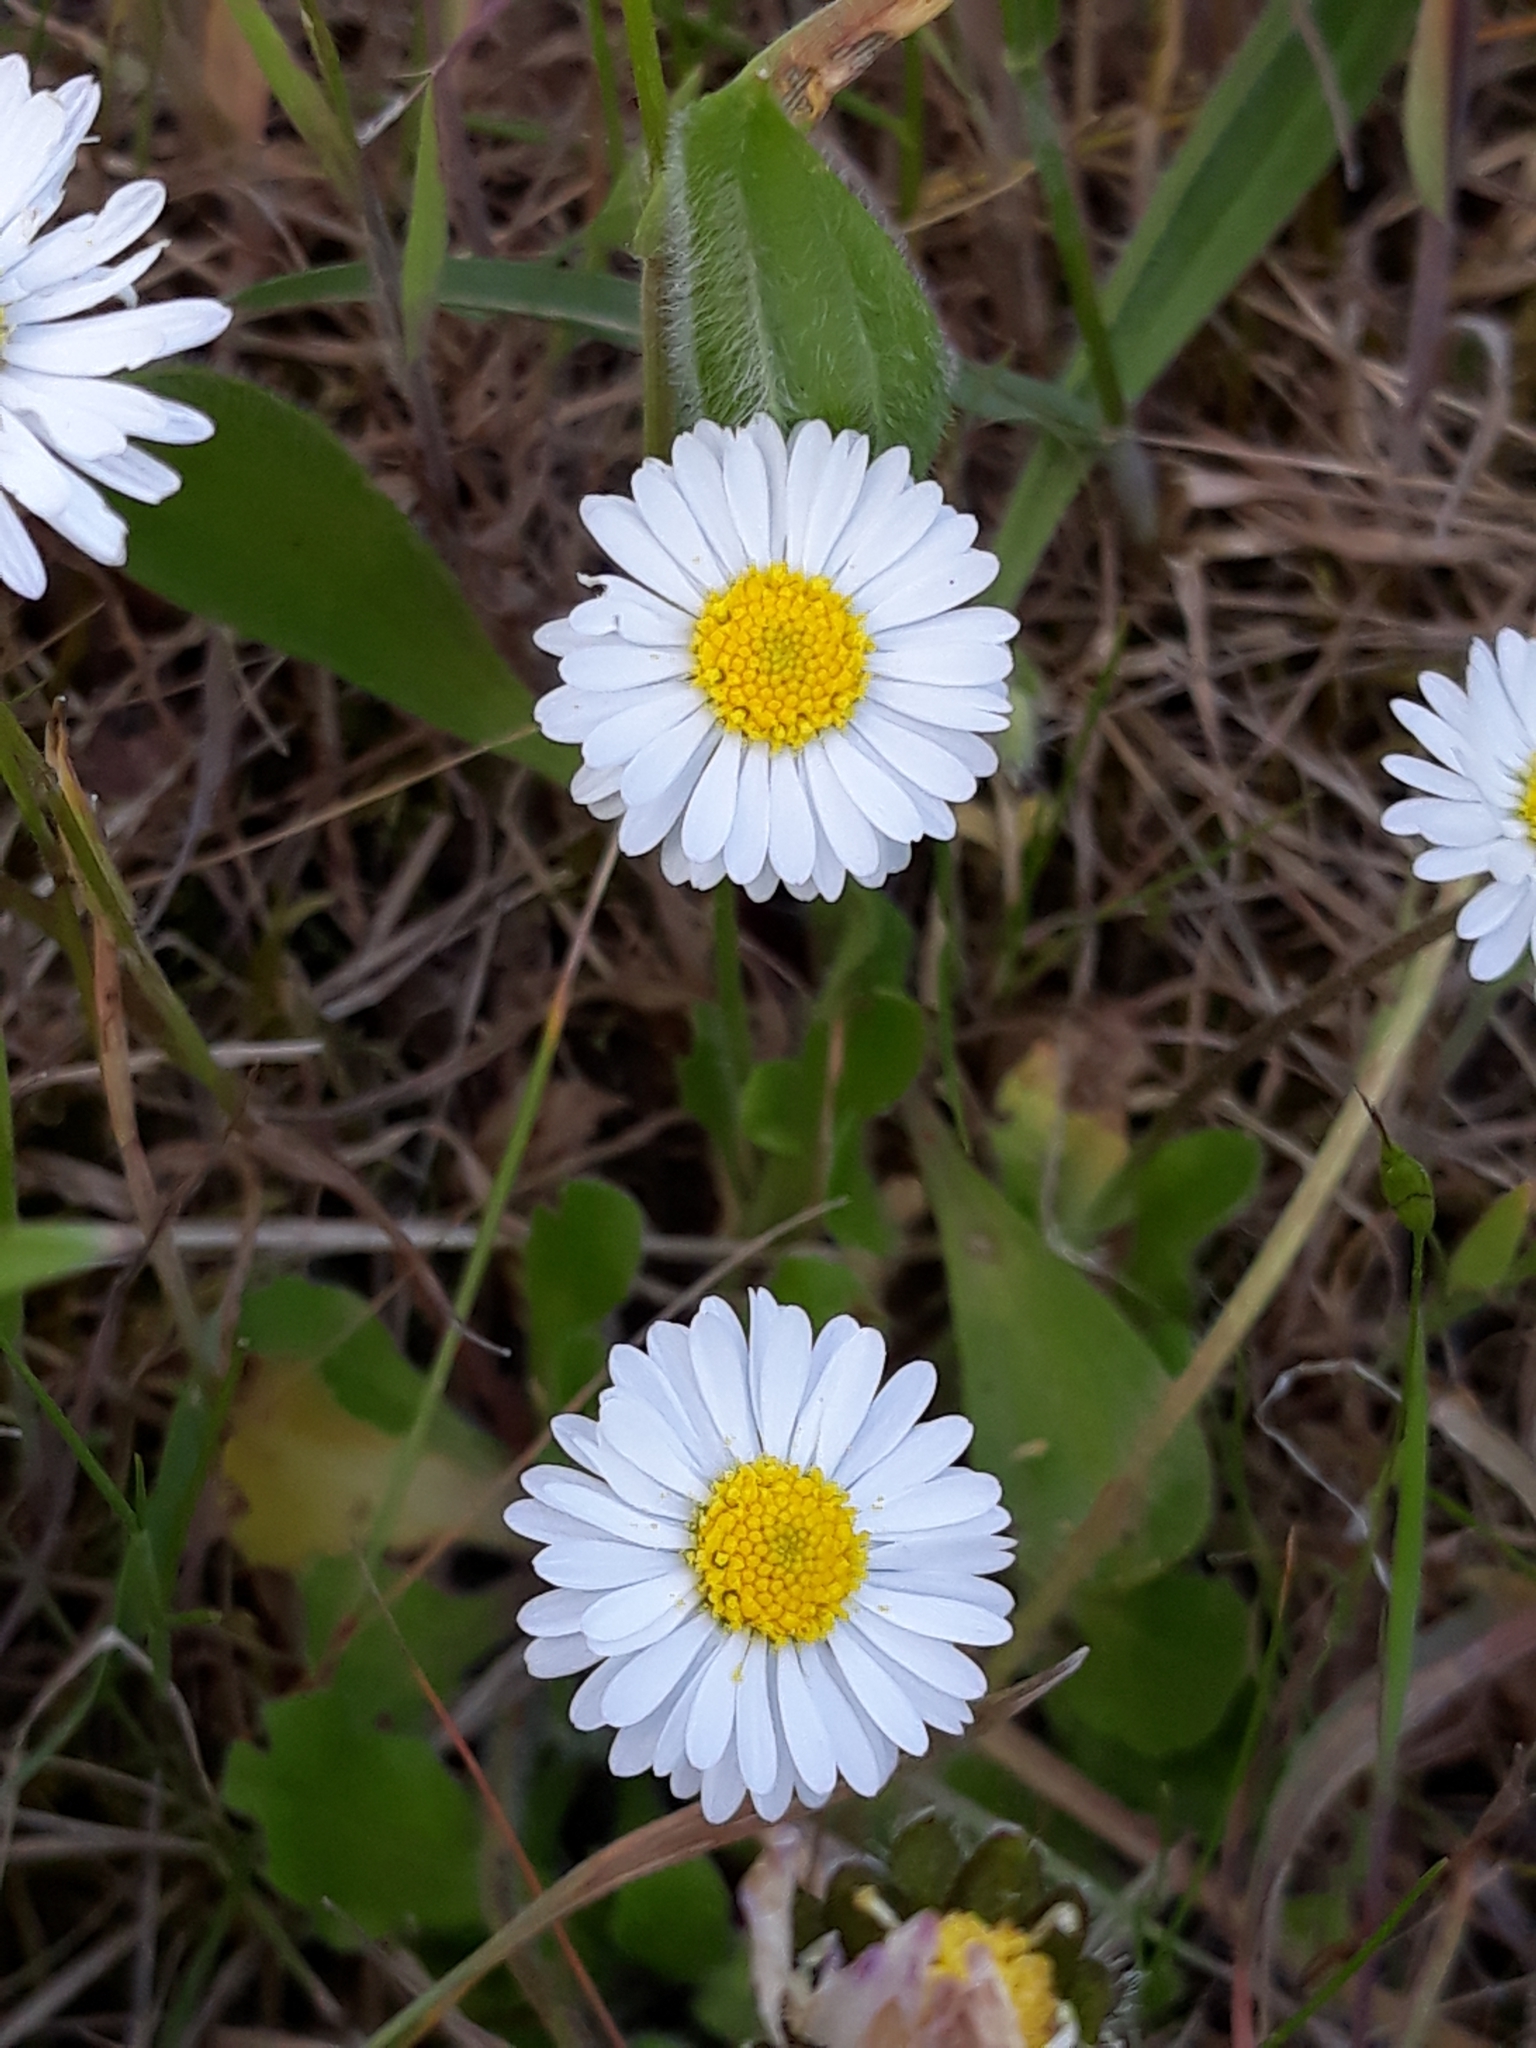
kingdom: Plantae
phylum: Tracheophyta
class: Magnoliopsida
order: Asterales
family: Asteraceae
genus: Bellis
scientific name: Bellis perennis
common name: Lawndaisy
